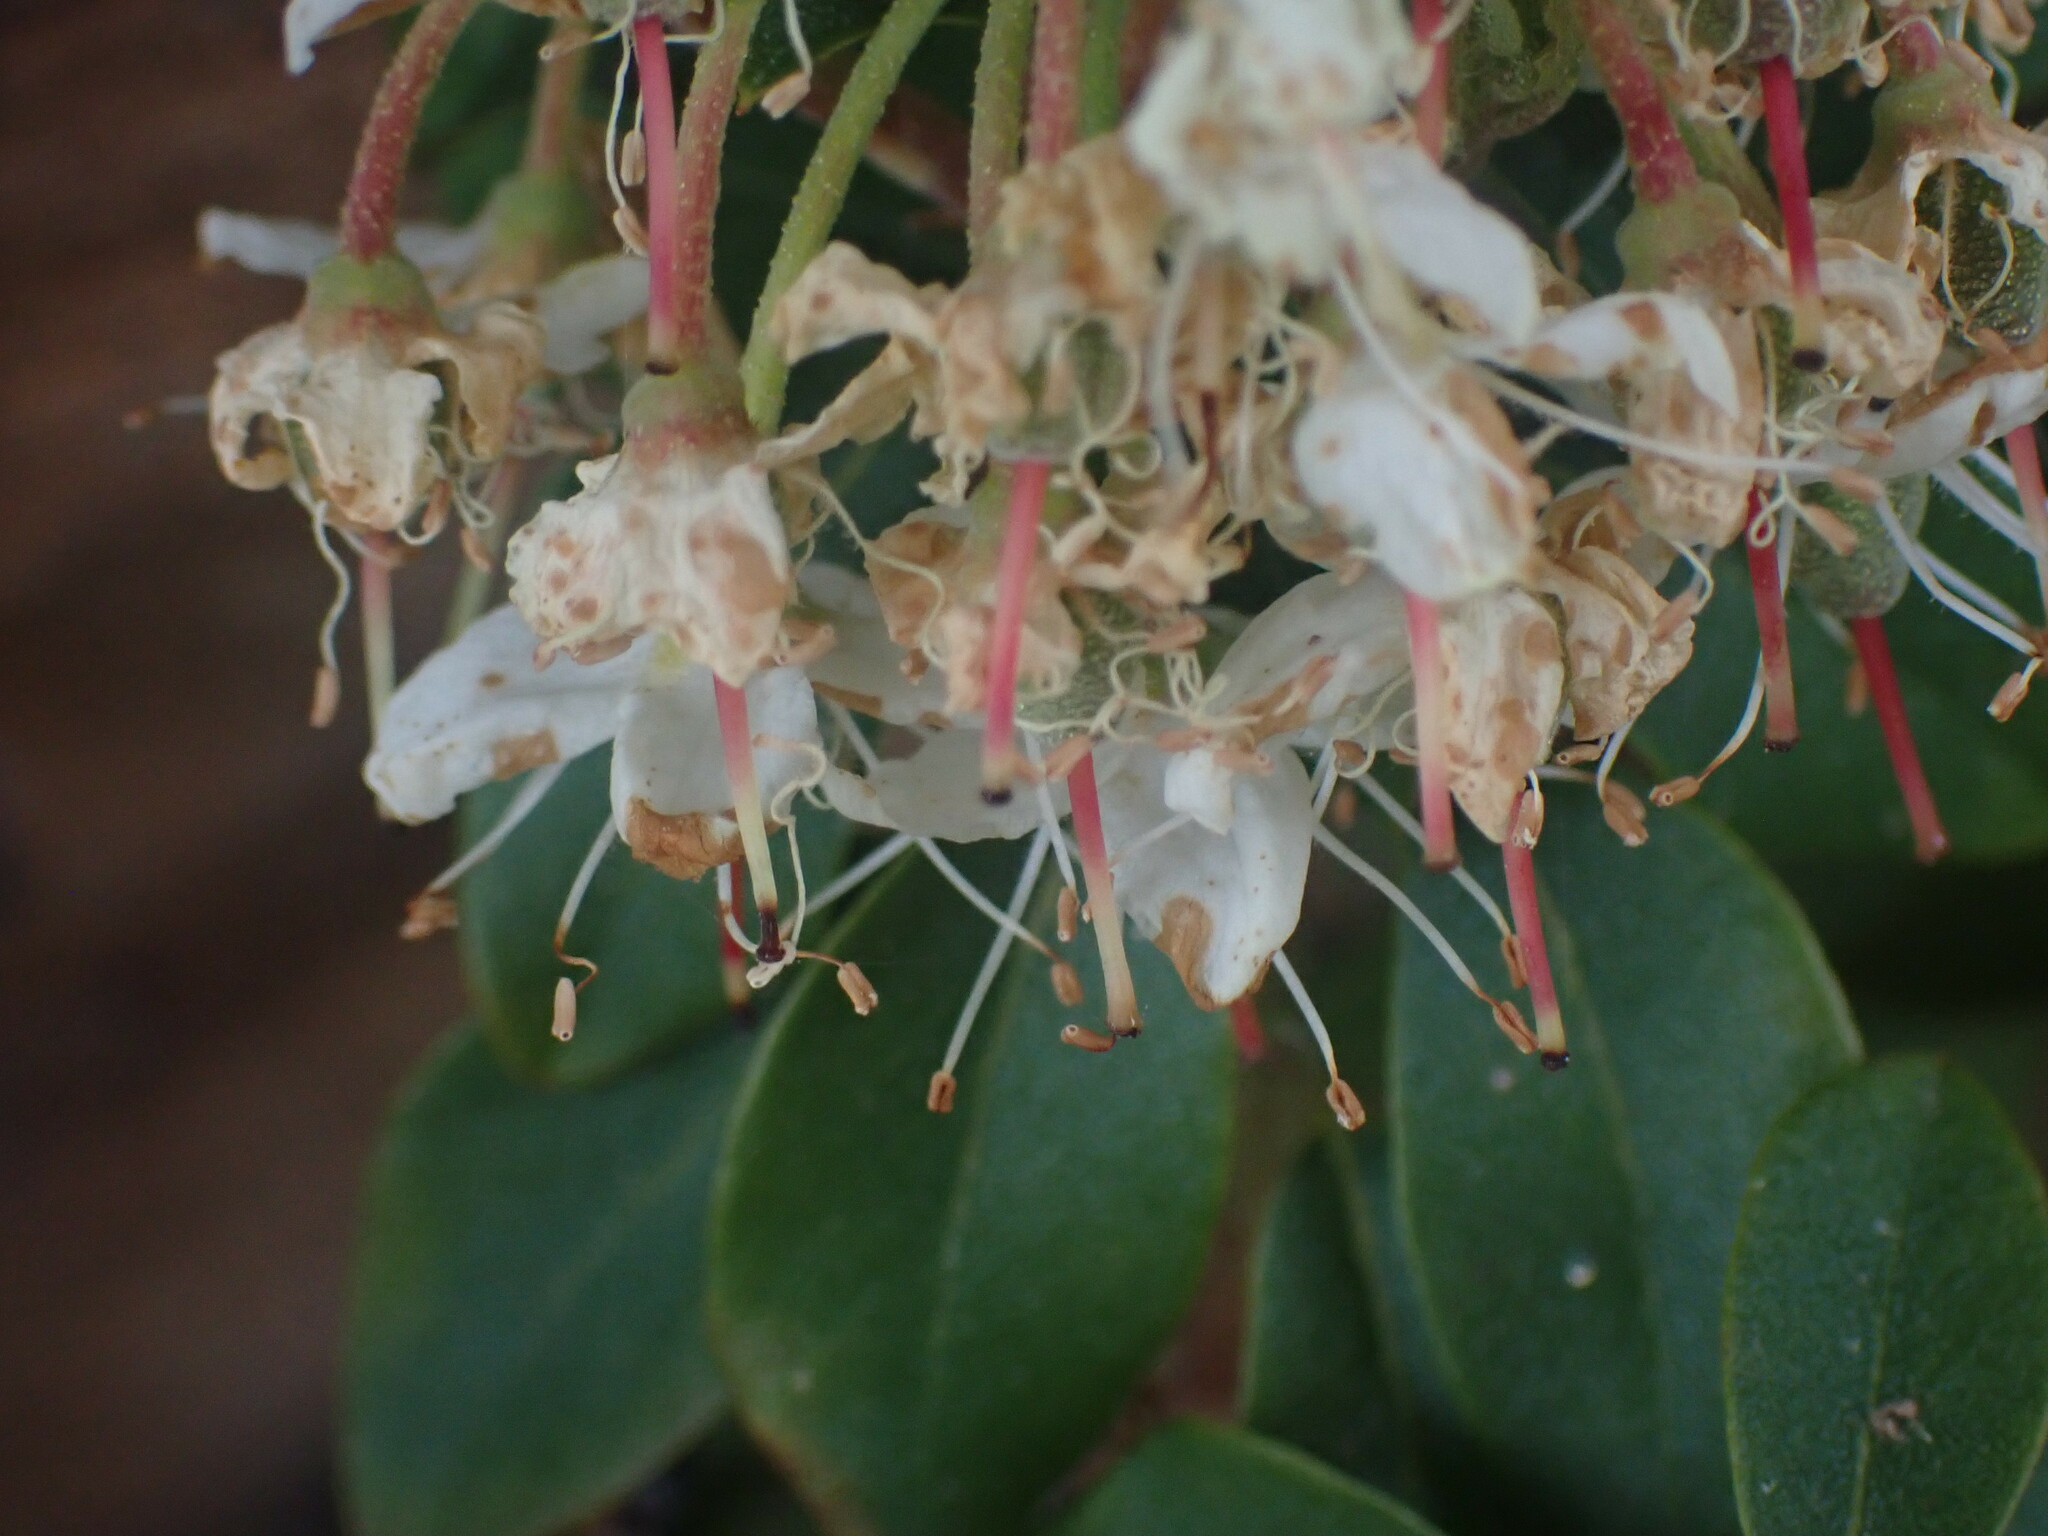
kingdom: Plantae
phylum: Tracheophyta
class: Magnoliopsida
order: Ericales
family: Ericaceae
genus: Rhododendron
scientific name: Rhododendron columbianum
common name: Western labrador tea
